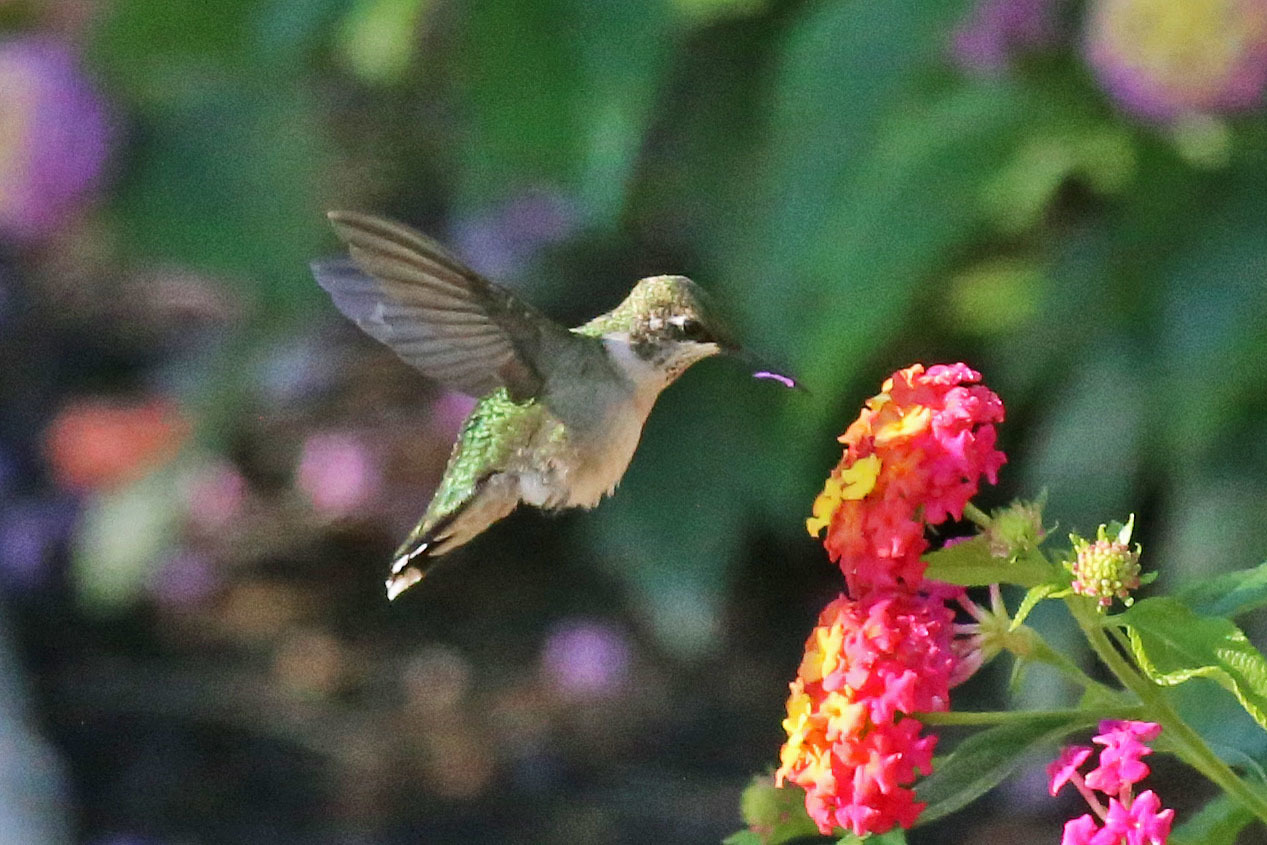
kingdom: Animalia
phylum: Chordata
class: Aves
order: Apodiformes
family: Trochilidae
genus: Archilochus
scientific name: Archilochus colubris
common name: Ruby-throated hummingbird
